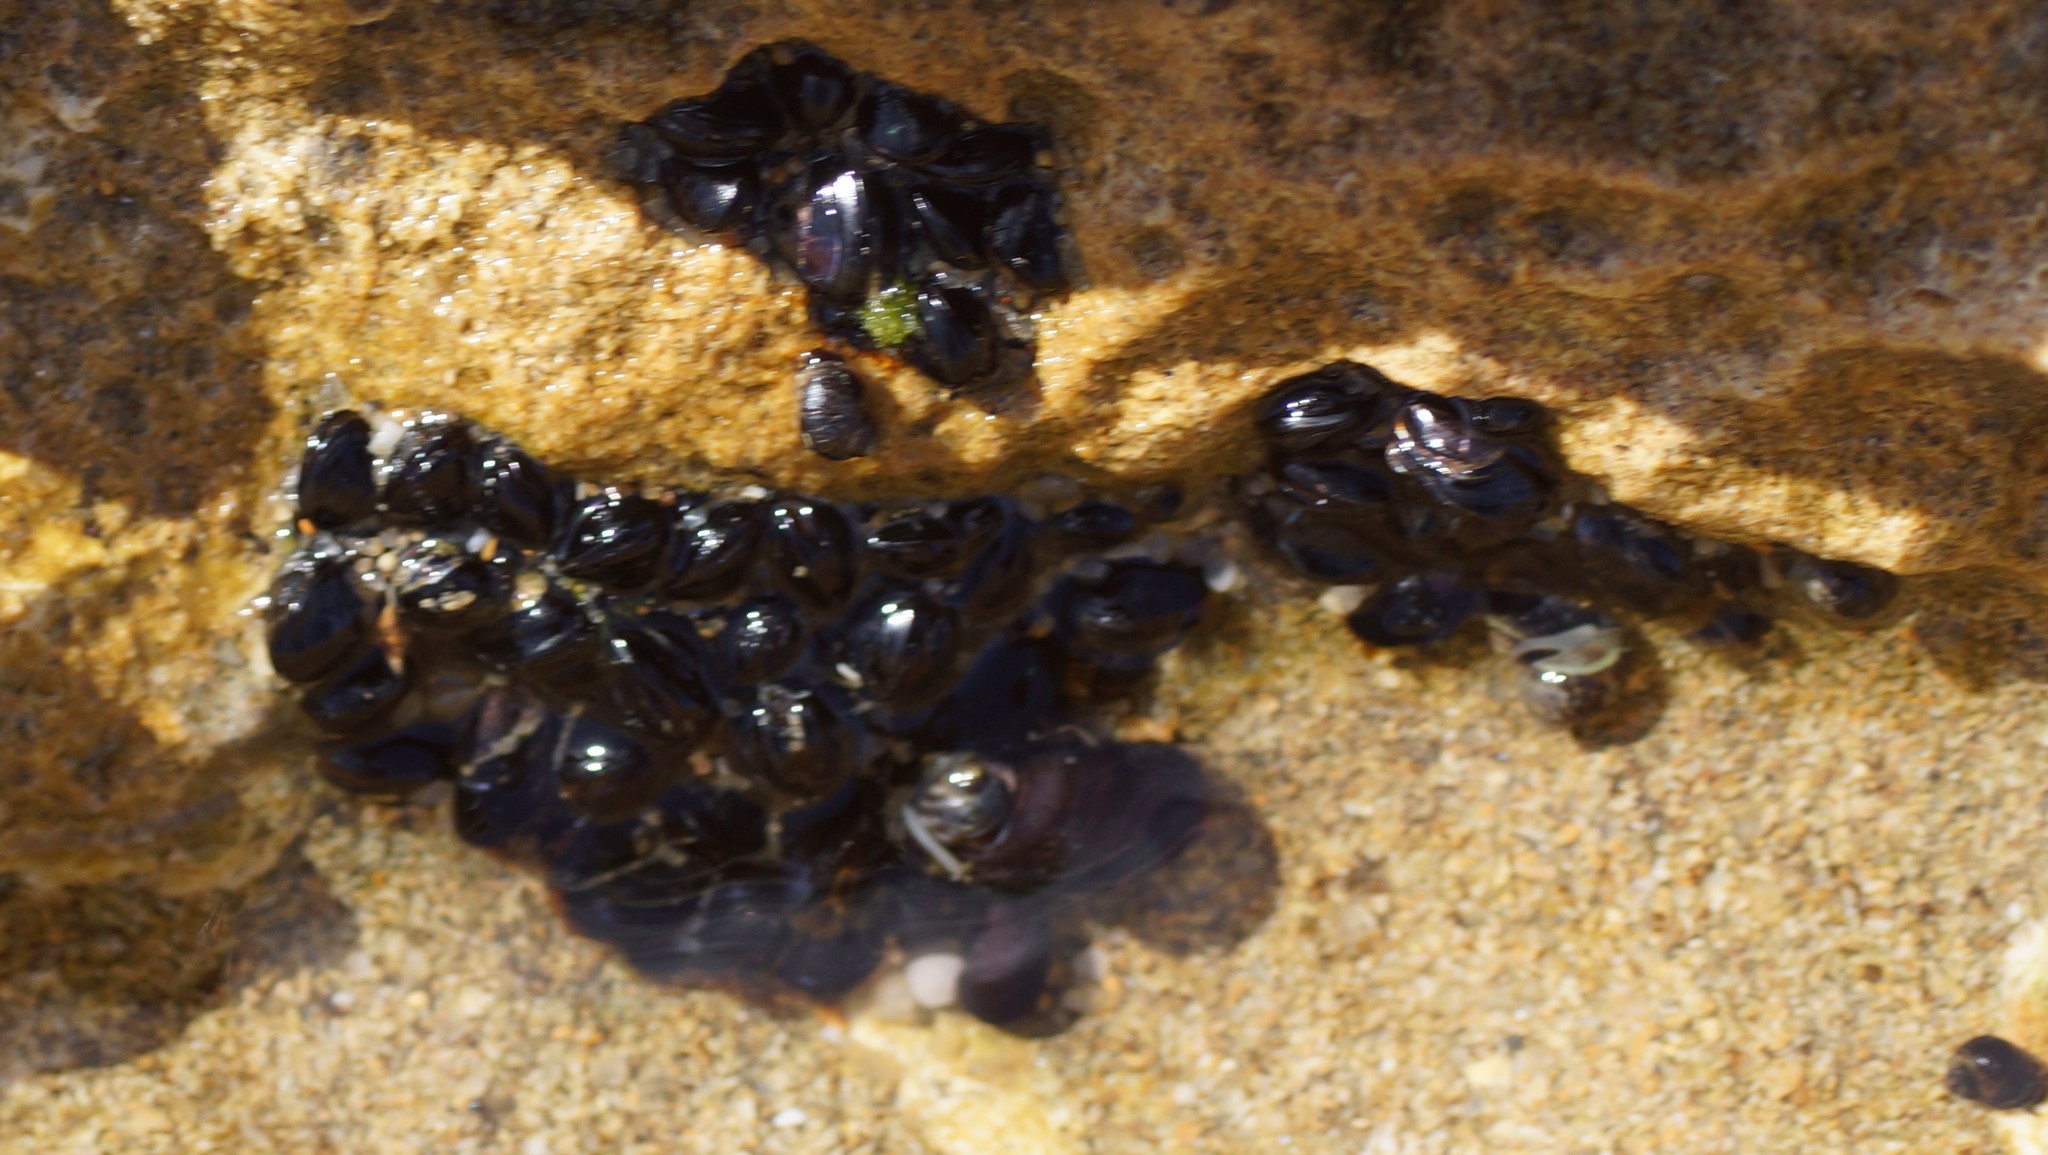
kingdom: Animalia
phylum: Mollusca
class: Bivalvia
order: Mytilida
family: Mytilidae
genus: Xenostrobus
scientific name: Xenostrobus pulex
